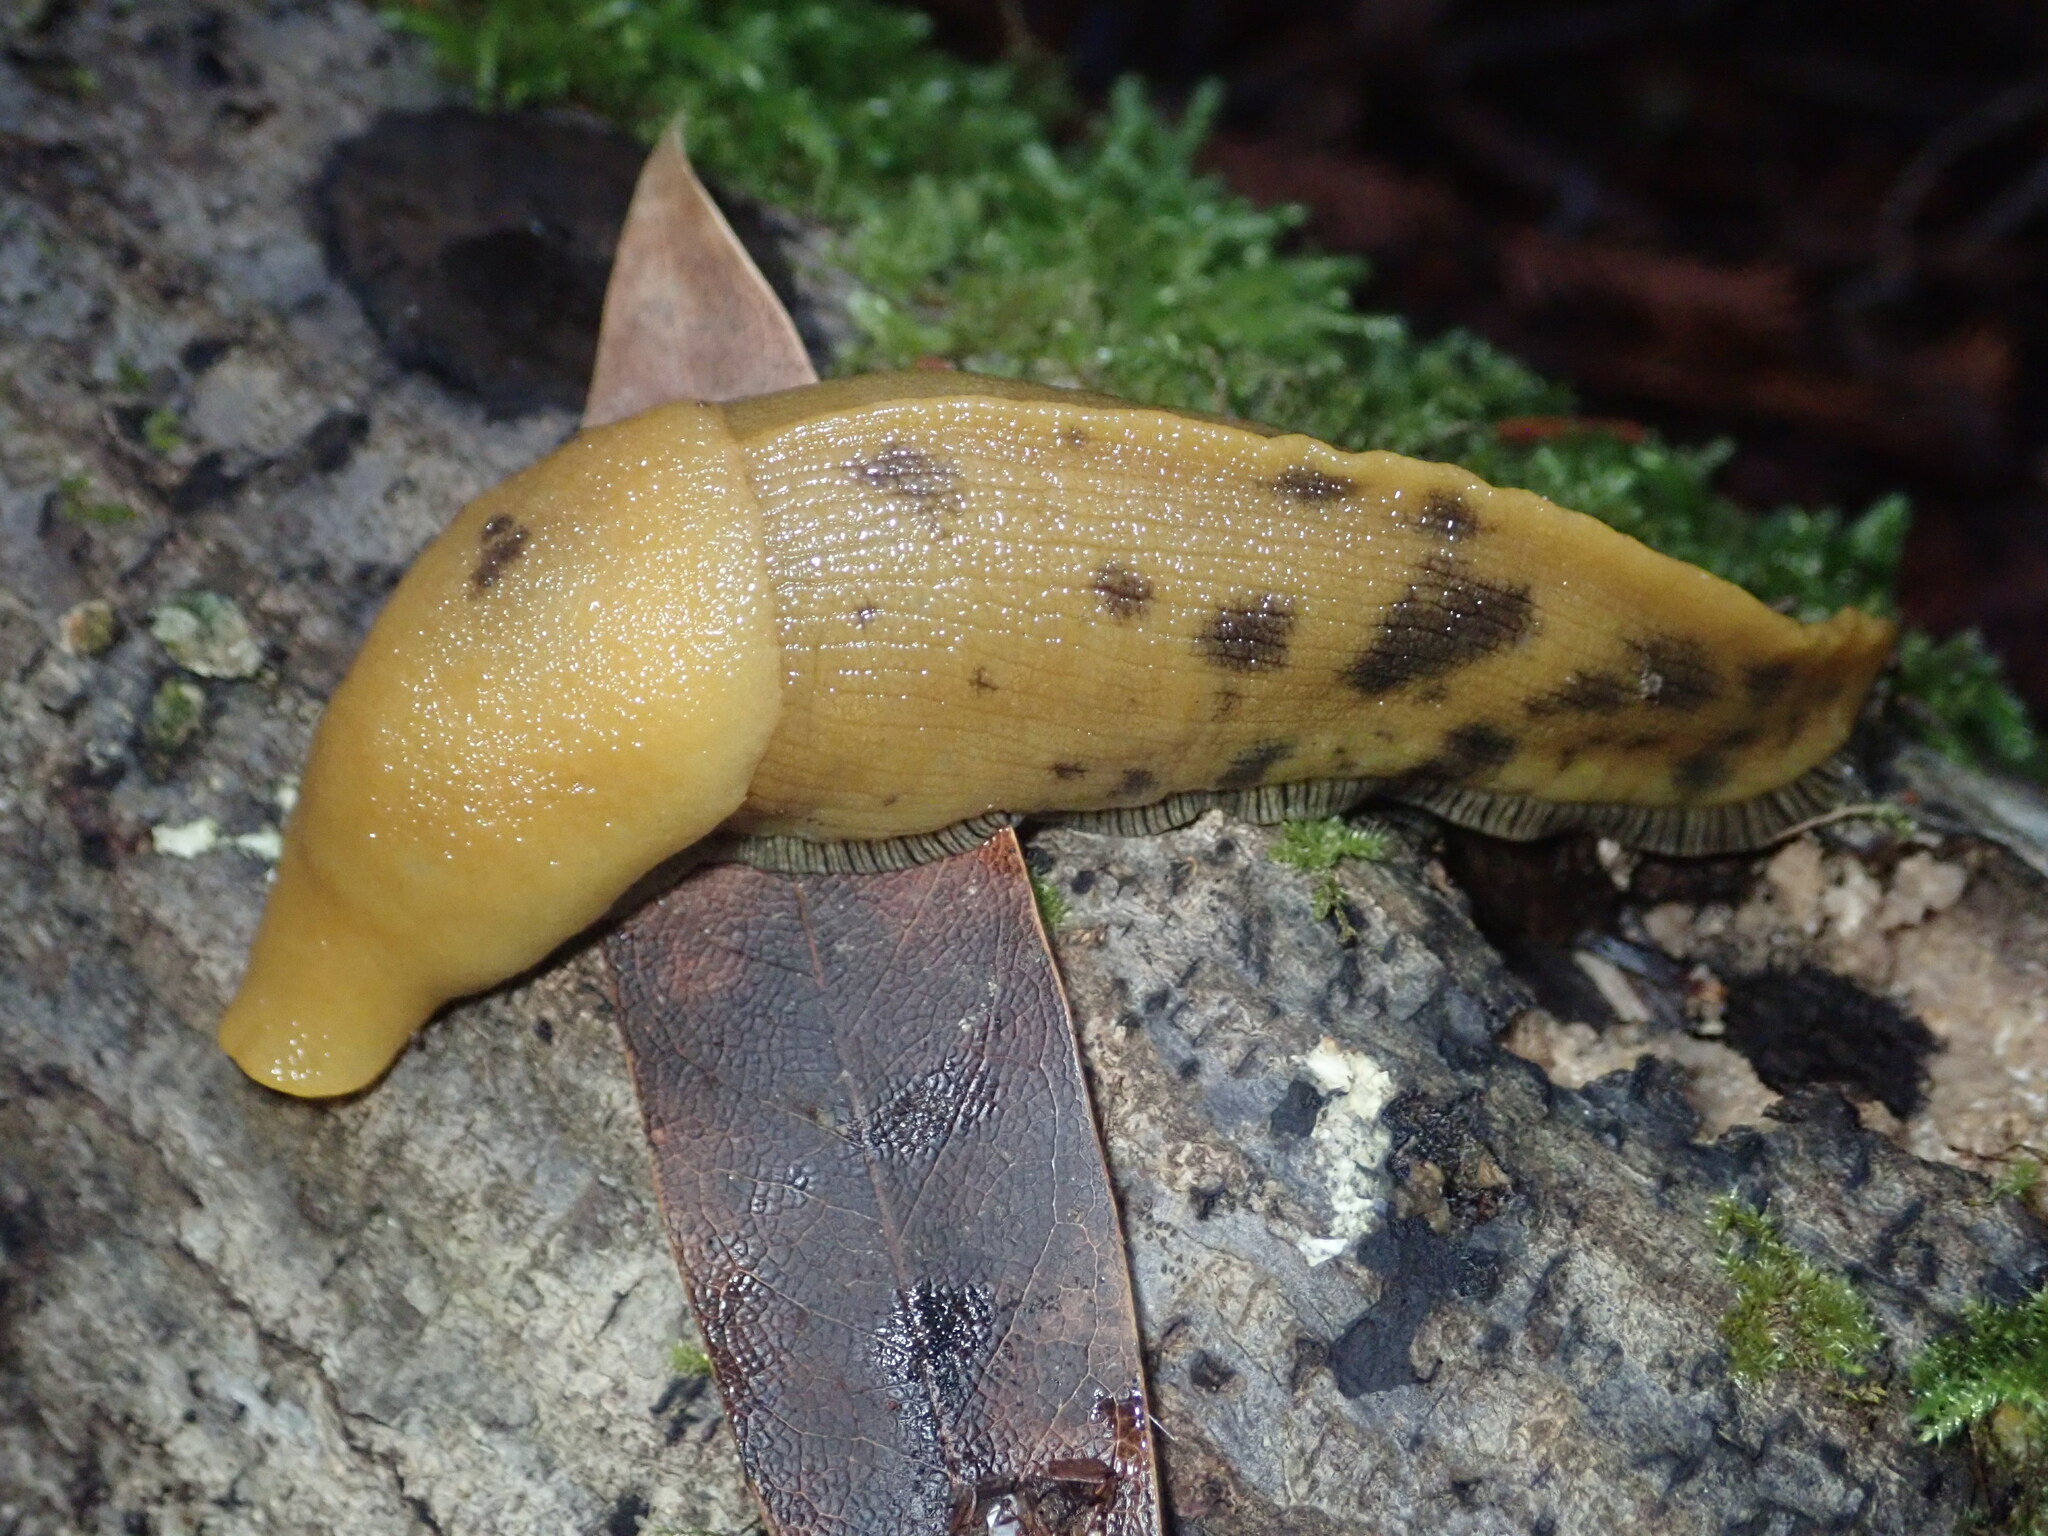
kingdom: Animalia
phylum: Mollusca
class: Gastropoda
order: Stylommatophora
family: Ariolimacidae
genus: Ariolimax
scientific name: Ariolimax buttoni
